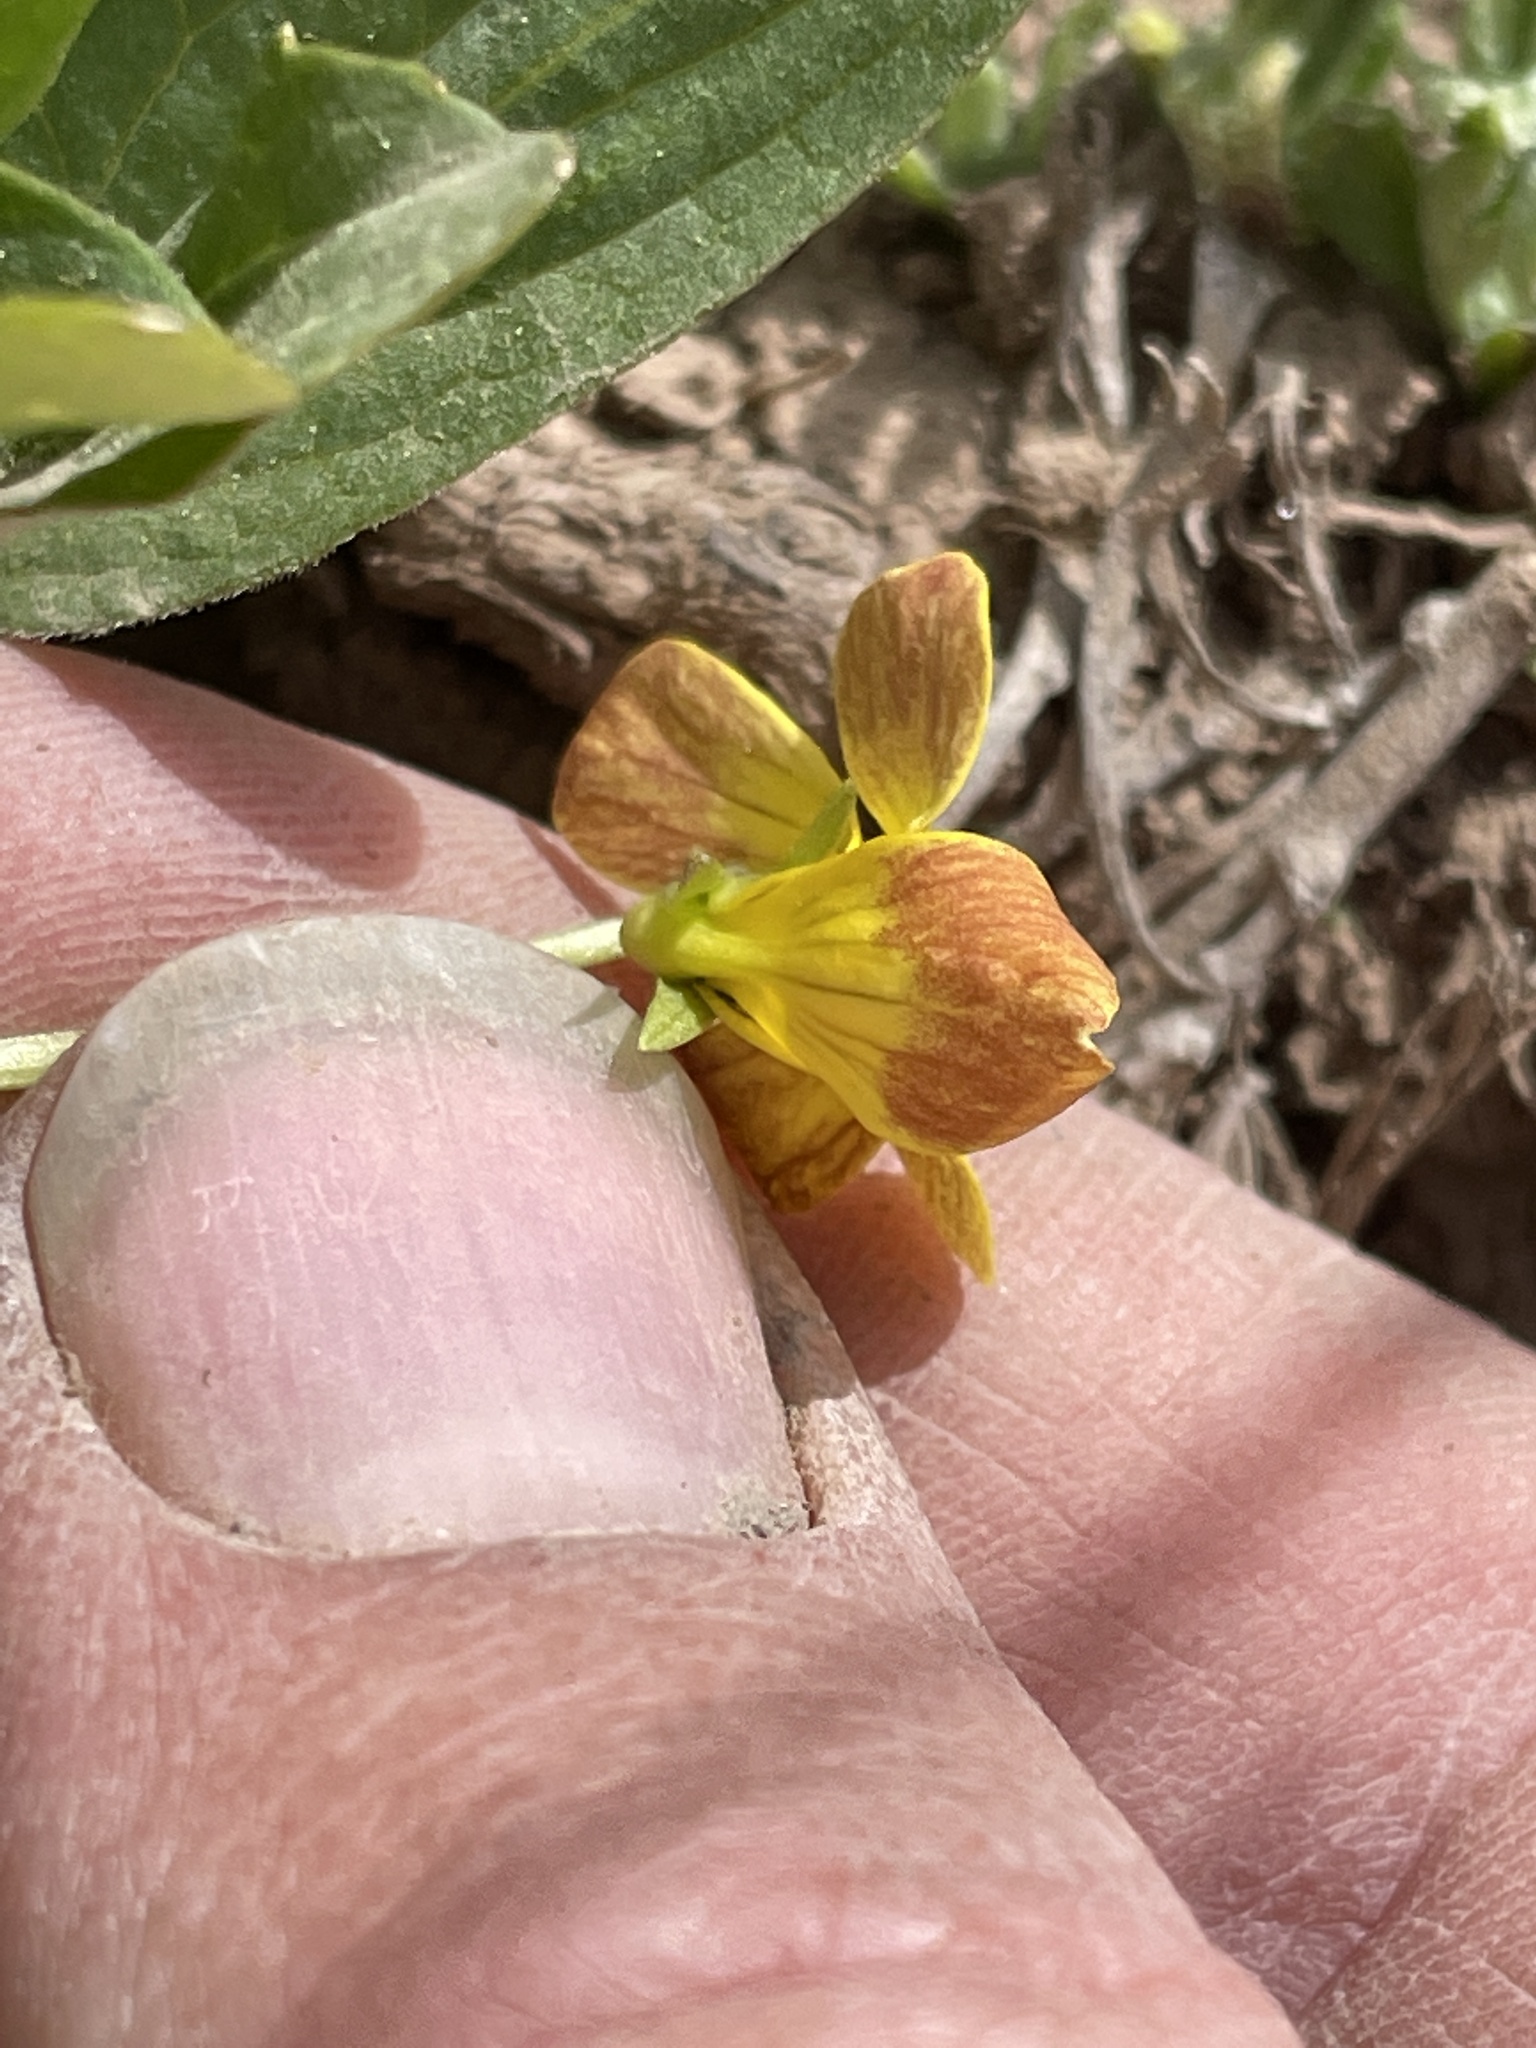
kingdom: Plantae
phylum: Tracheophyta
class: Magnoliopsida
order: Malpighiales
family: Violaceae
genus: Viola
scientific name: Viola praemorsa
